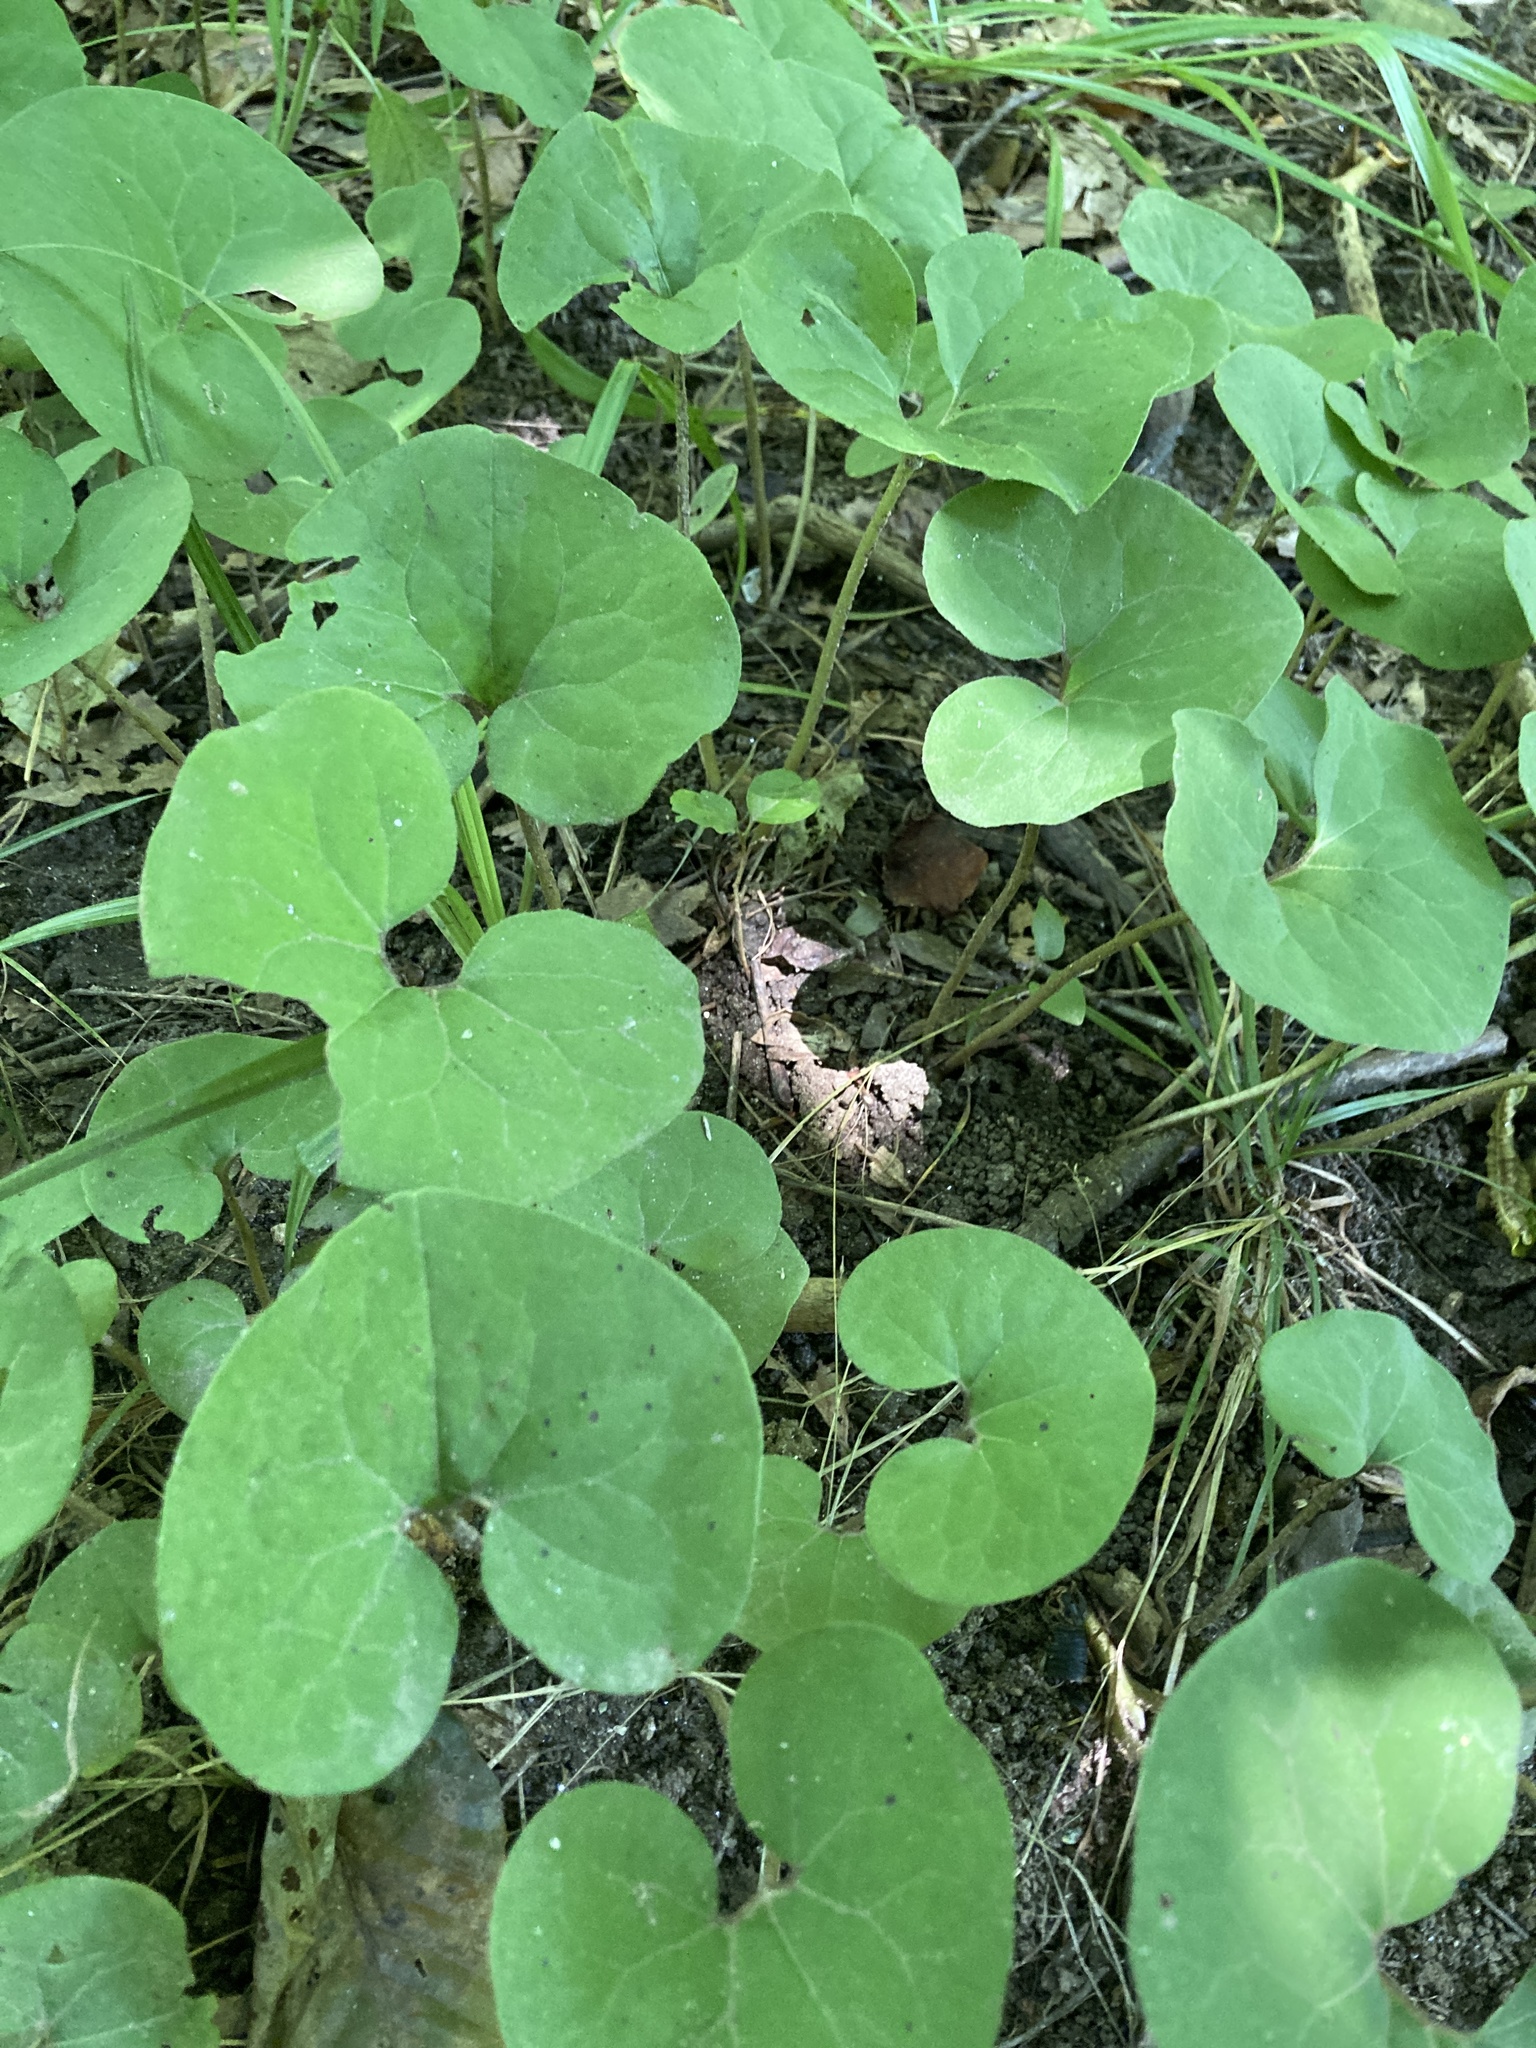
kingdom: Plantae
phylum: Tracheophyta
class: Magnoliopsida
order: Piperales
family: Aristolochiaceae
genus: Asarum
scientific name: Asarum canadense
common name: Wild ginger
